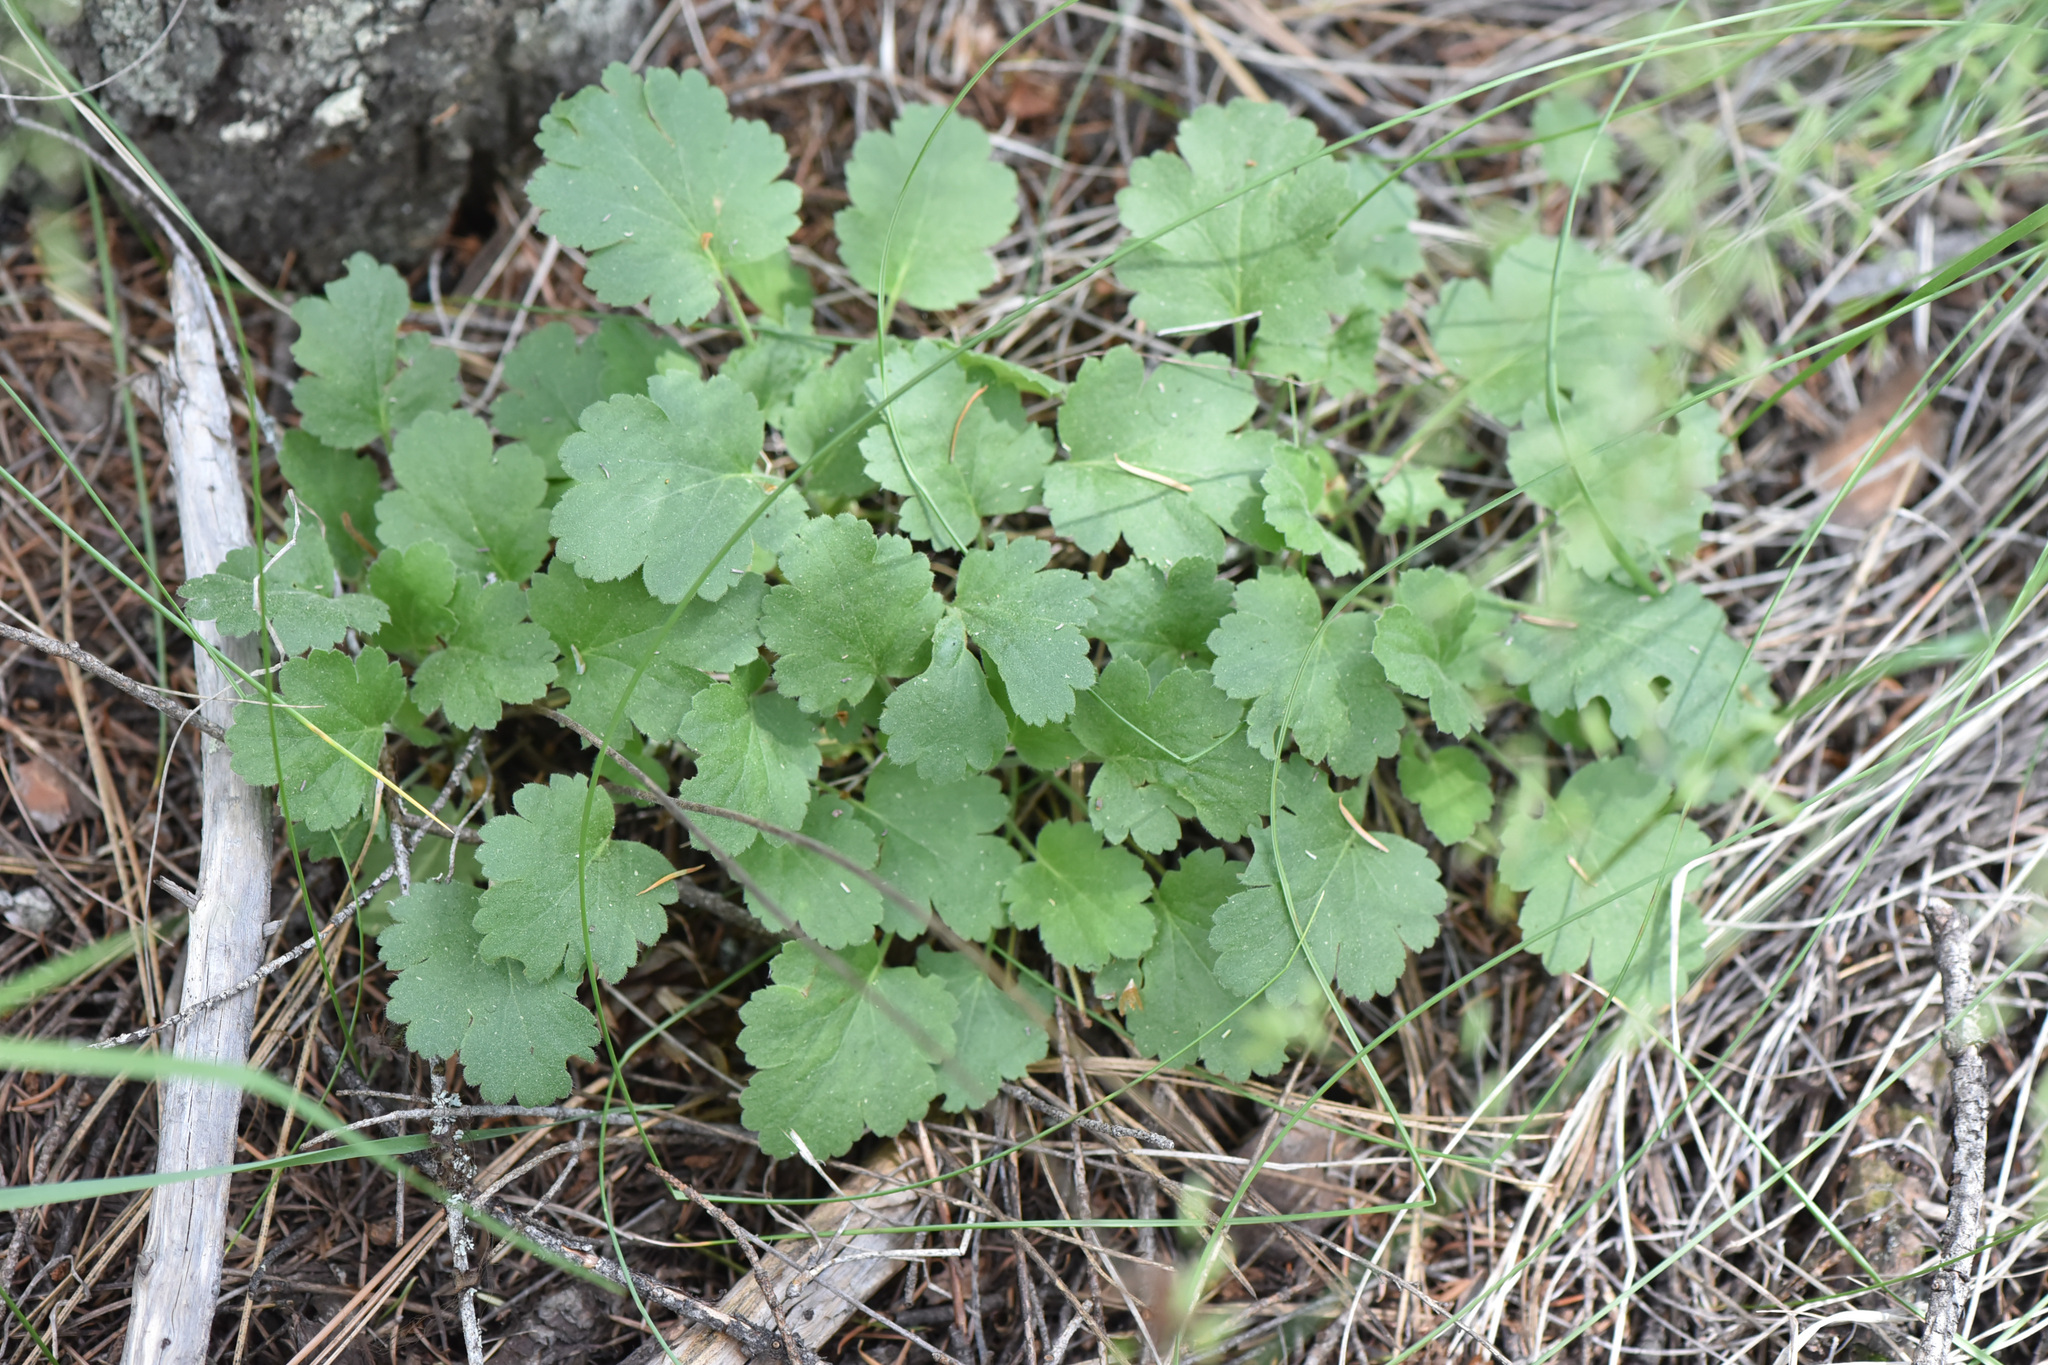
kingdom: Plantae
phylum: Tracheophyta
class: Magnoliopsida
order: Saxifragales
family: Saxifragaceae
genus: Heuchera
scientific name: Heuchera cylindrica
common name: Mat alumroot
